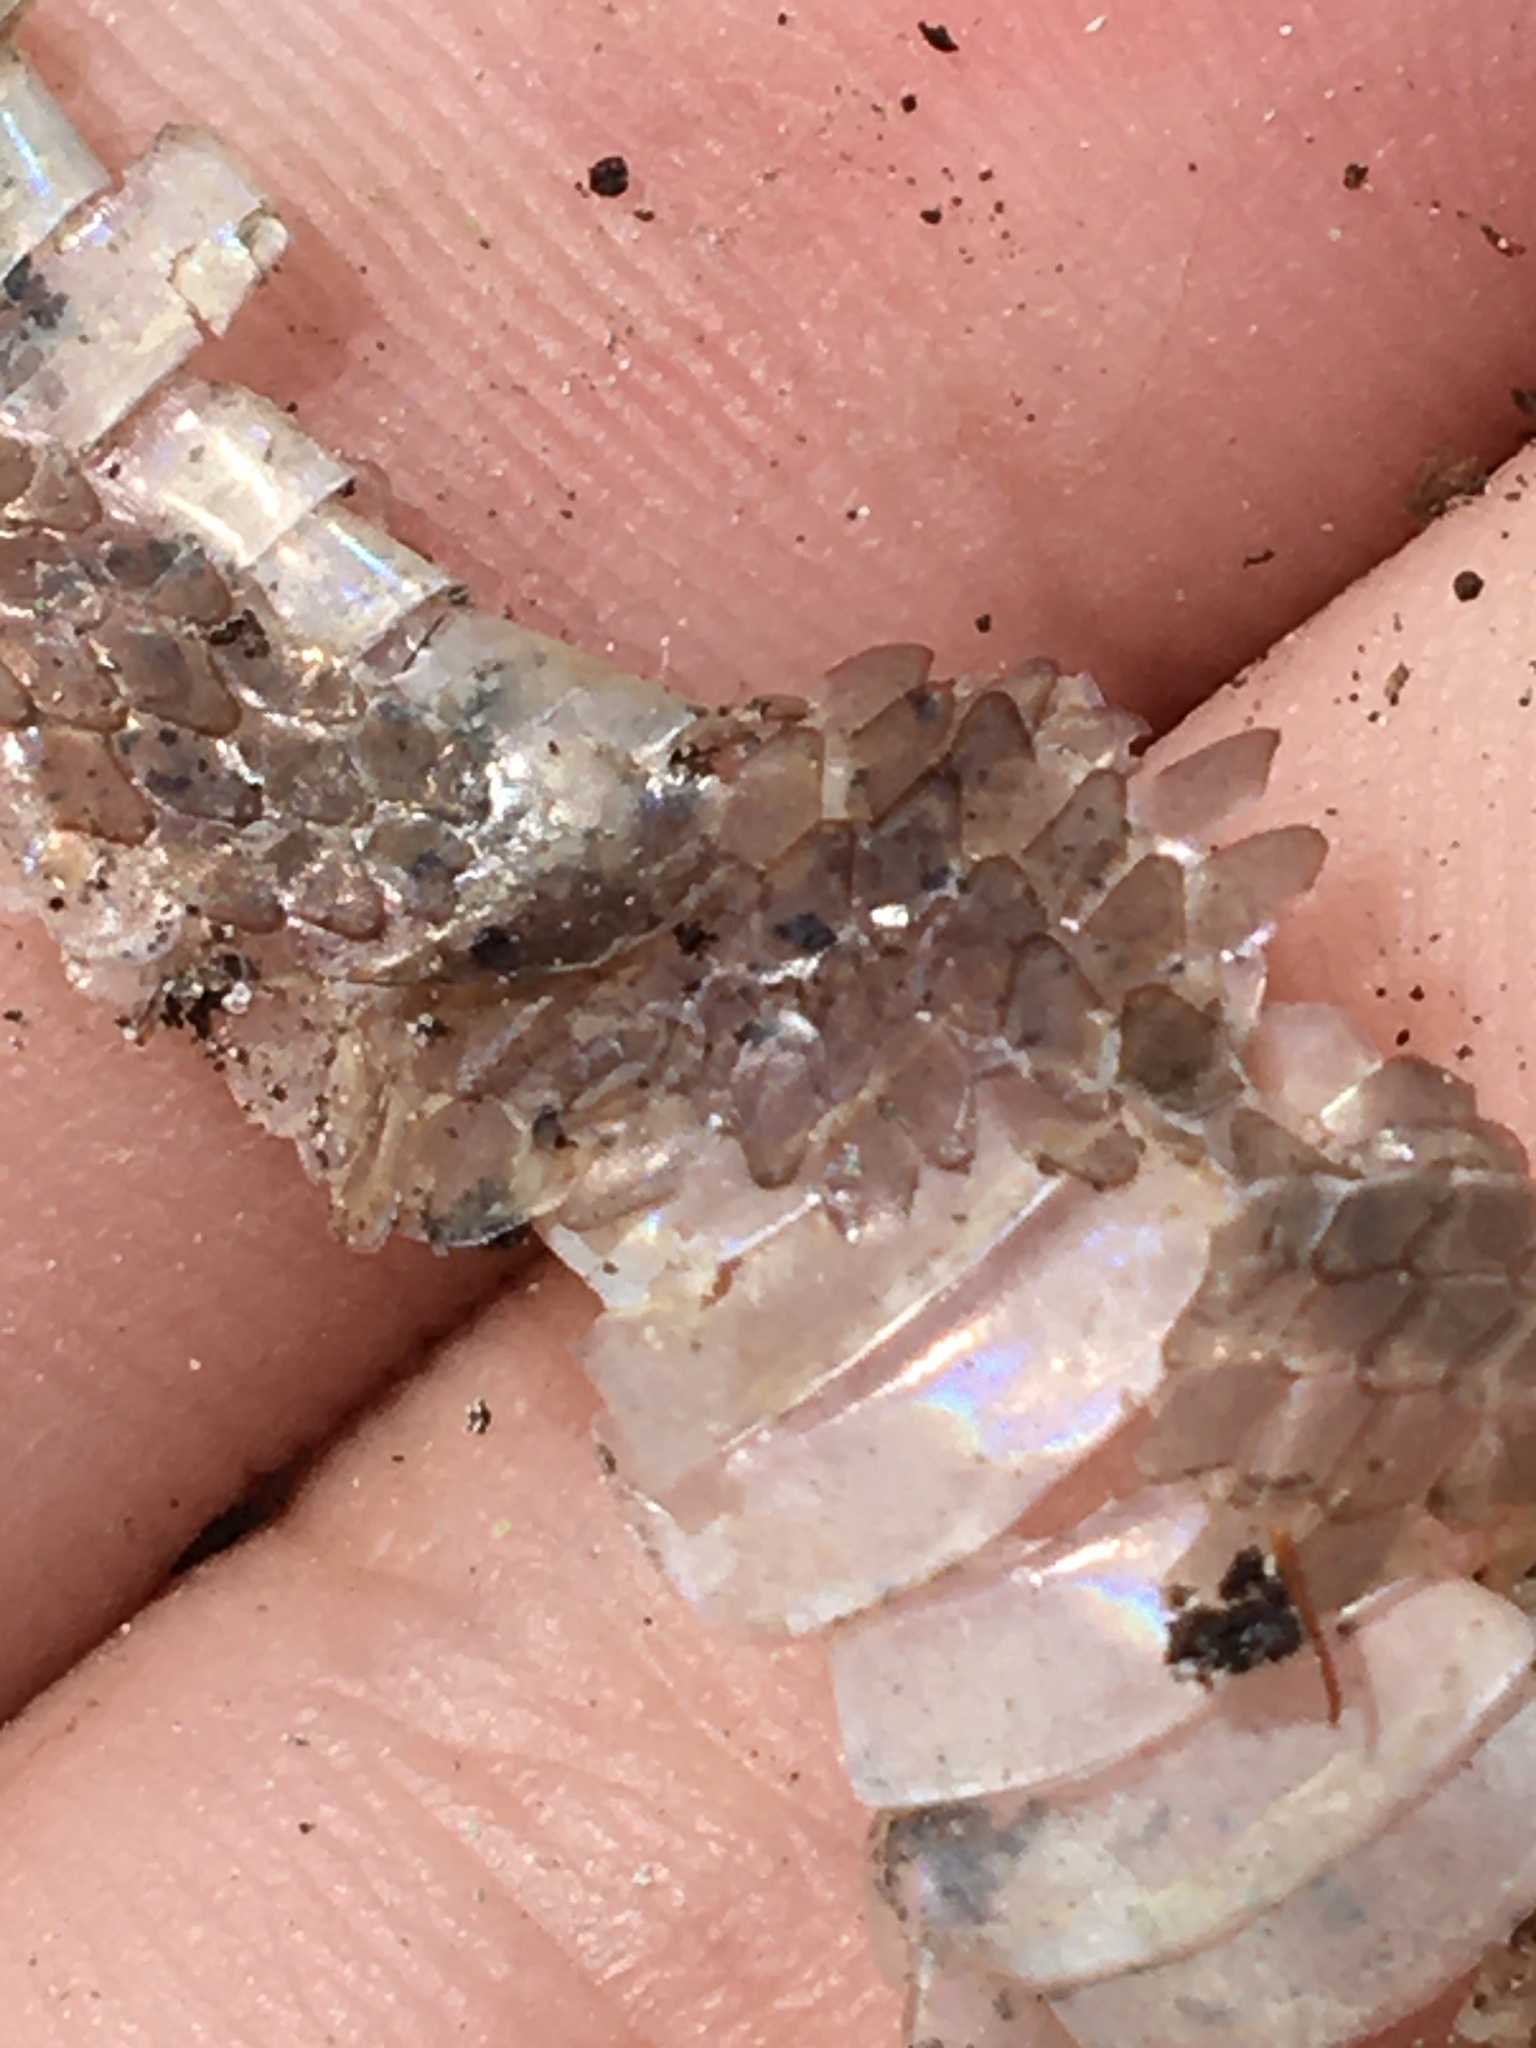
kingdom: Animalia
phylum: Chordata
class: Squamata
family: Colubridae
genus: Opheodrys
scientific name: Opheodrys vernalis
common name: Smooth green snake
